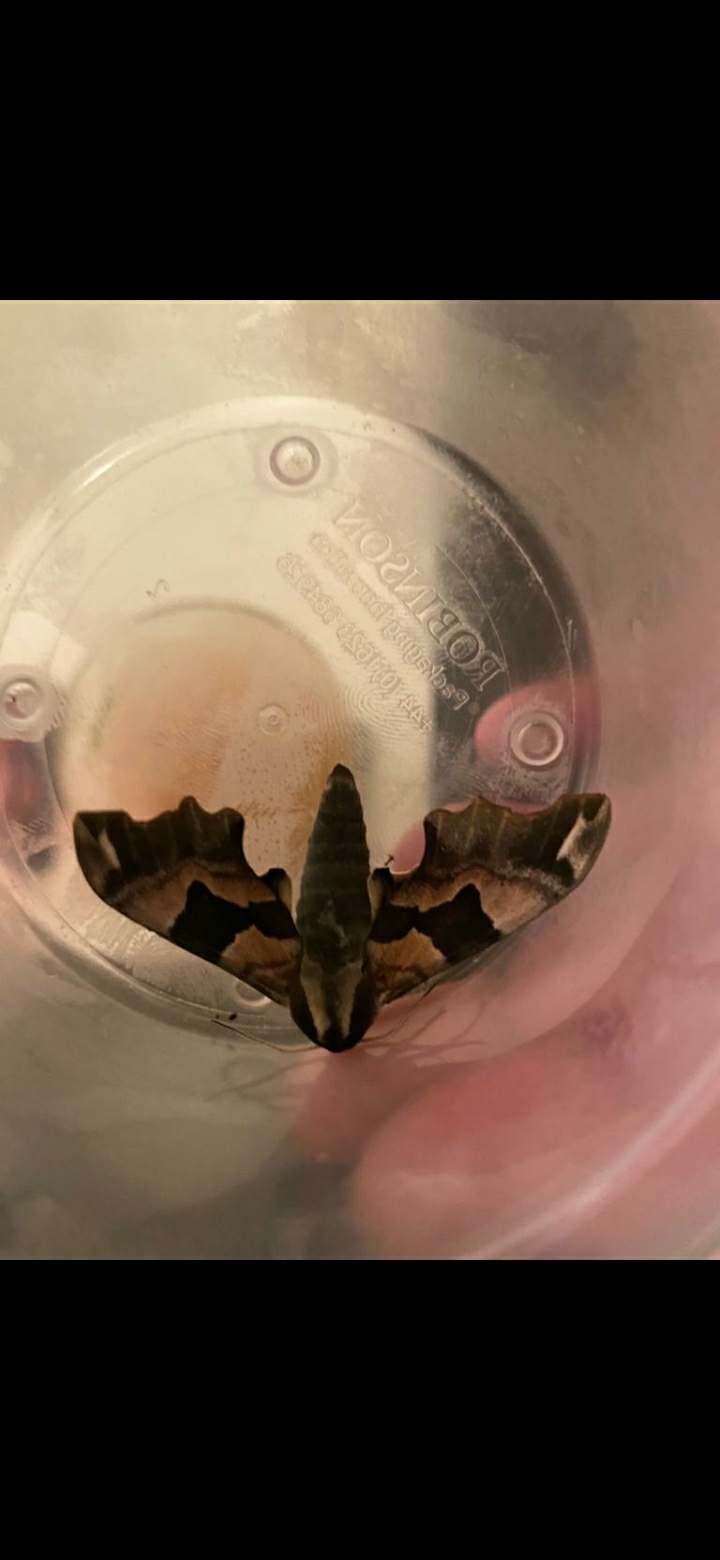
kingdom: Animalia
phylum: Arthropoda
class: Insecta
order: Lepidoptera
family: Sphingidae
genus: Mimas
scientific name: Mimas tiliae
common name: Lime hawk-moth
